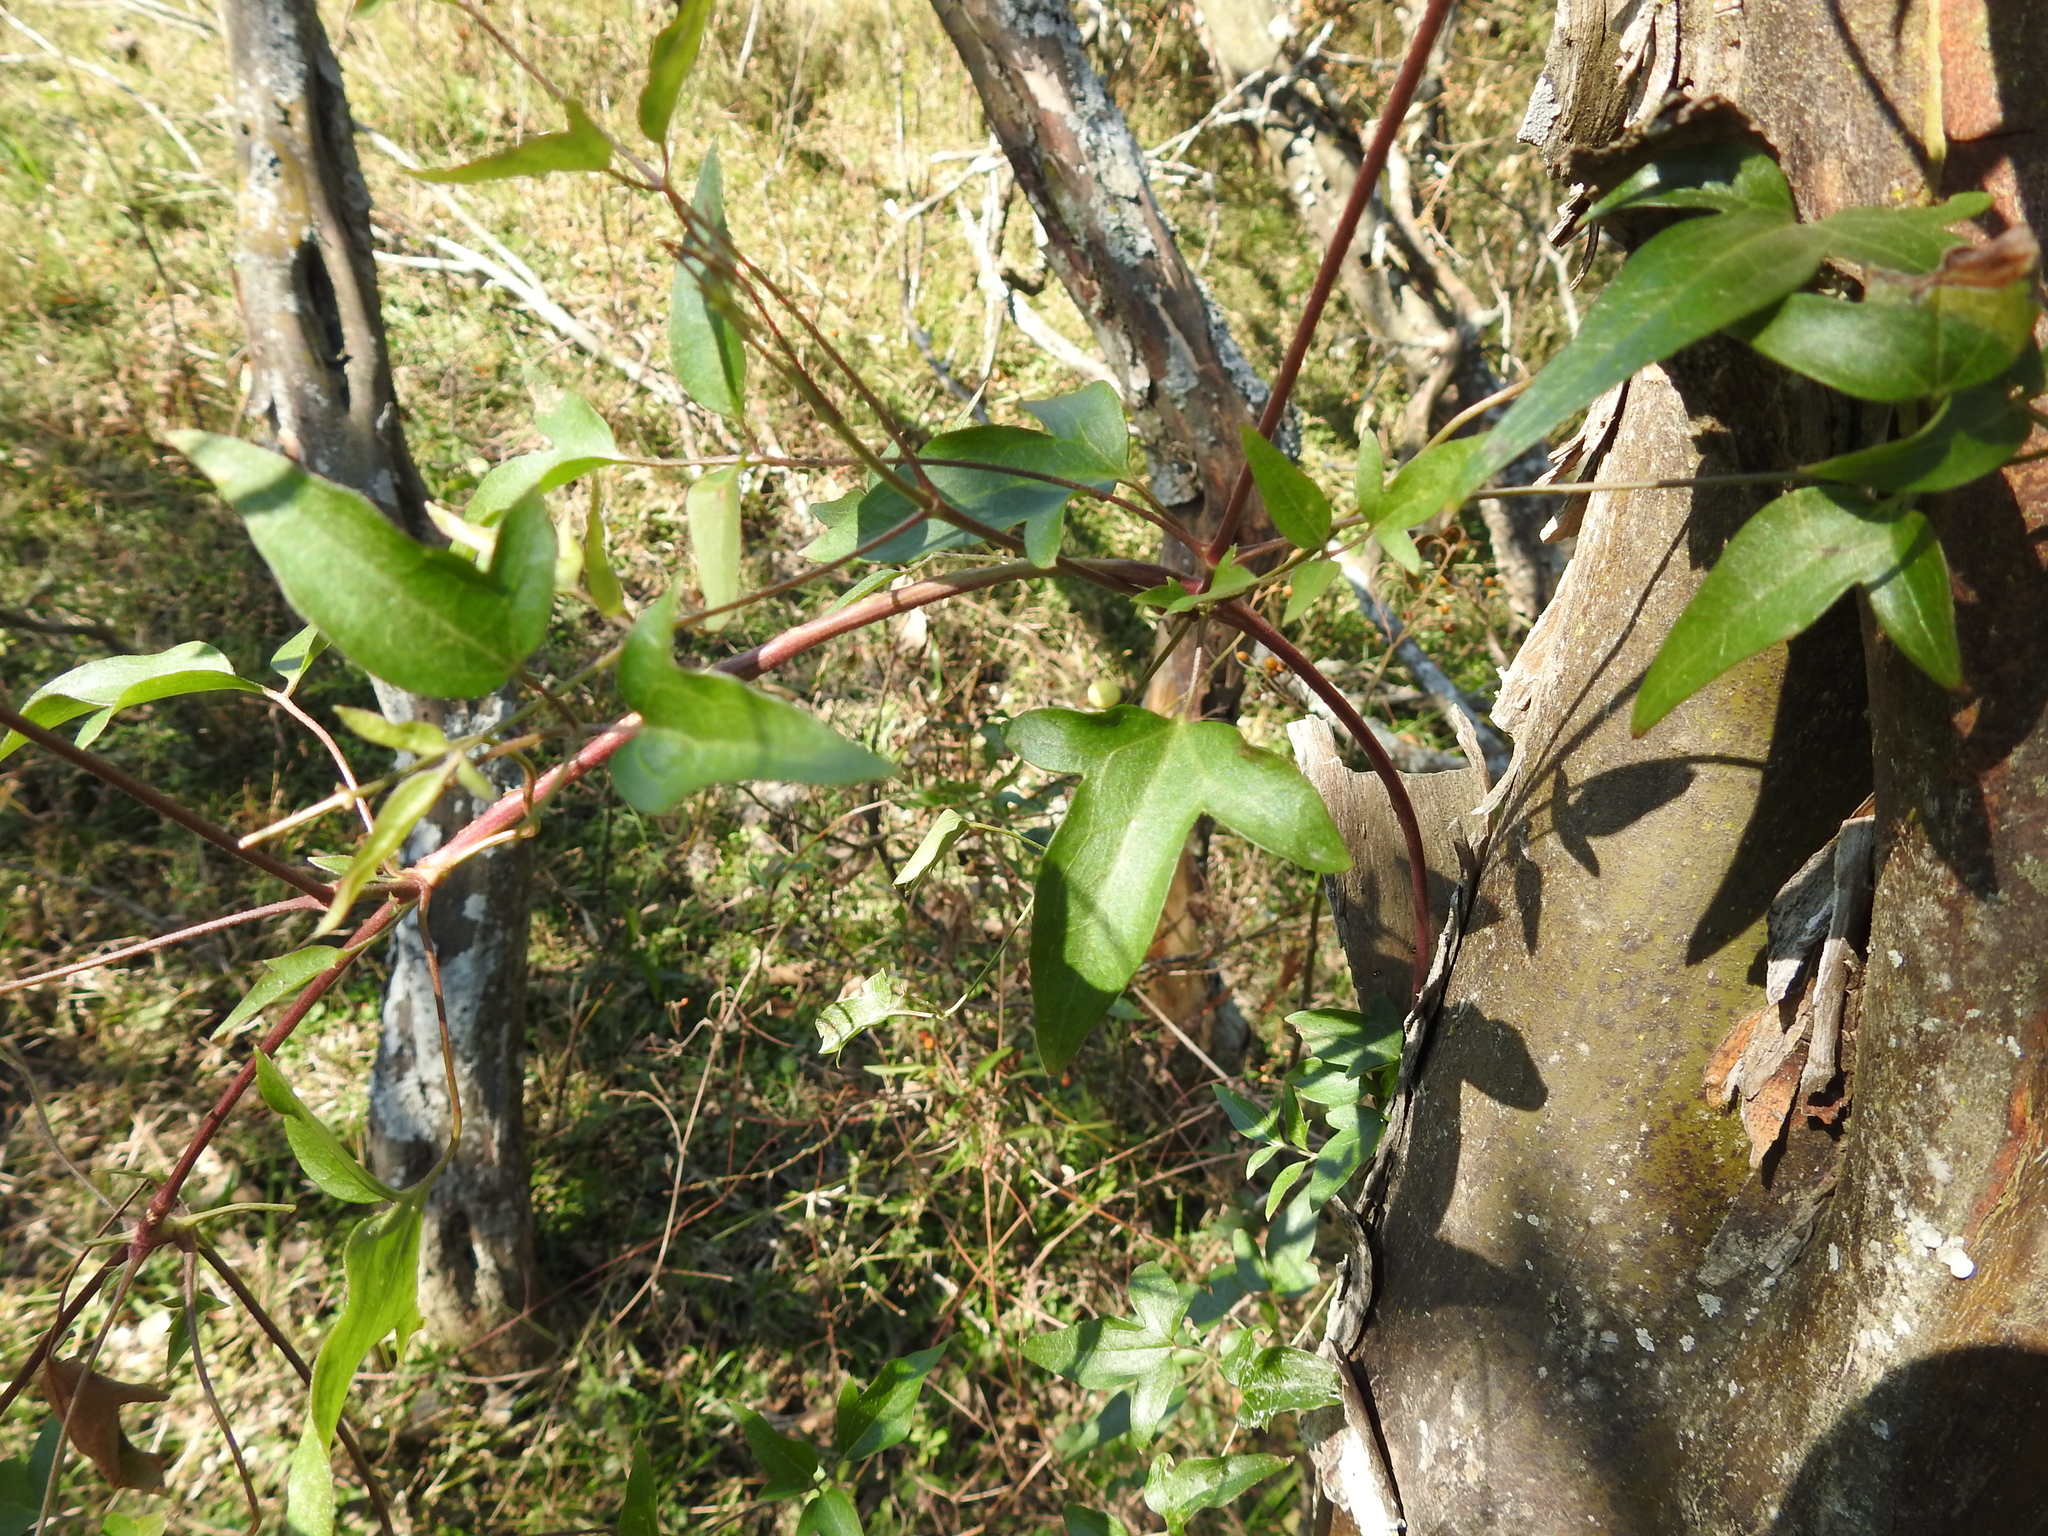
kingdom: Plantae
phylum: Tracheophyta
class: Magnoliopsida
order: Ranunculales
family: Ranunculaceae
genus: Clematis
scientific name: Clematis montevidensis
